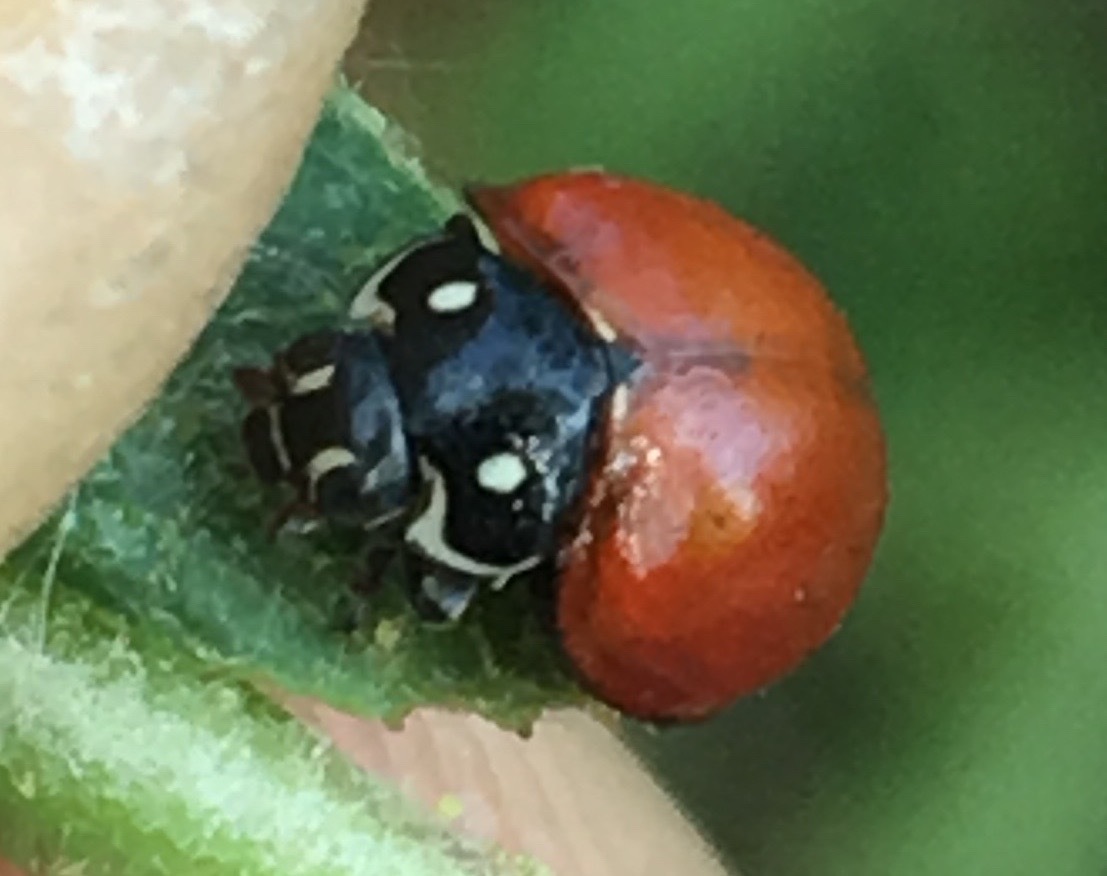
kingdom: Animalia
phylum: Arthropoda
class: Insecta
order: Coleoptera
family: Coccinellidae
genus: Cycloneda
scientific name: Cycloneda sanguinea
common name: Ladybird beetle
